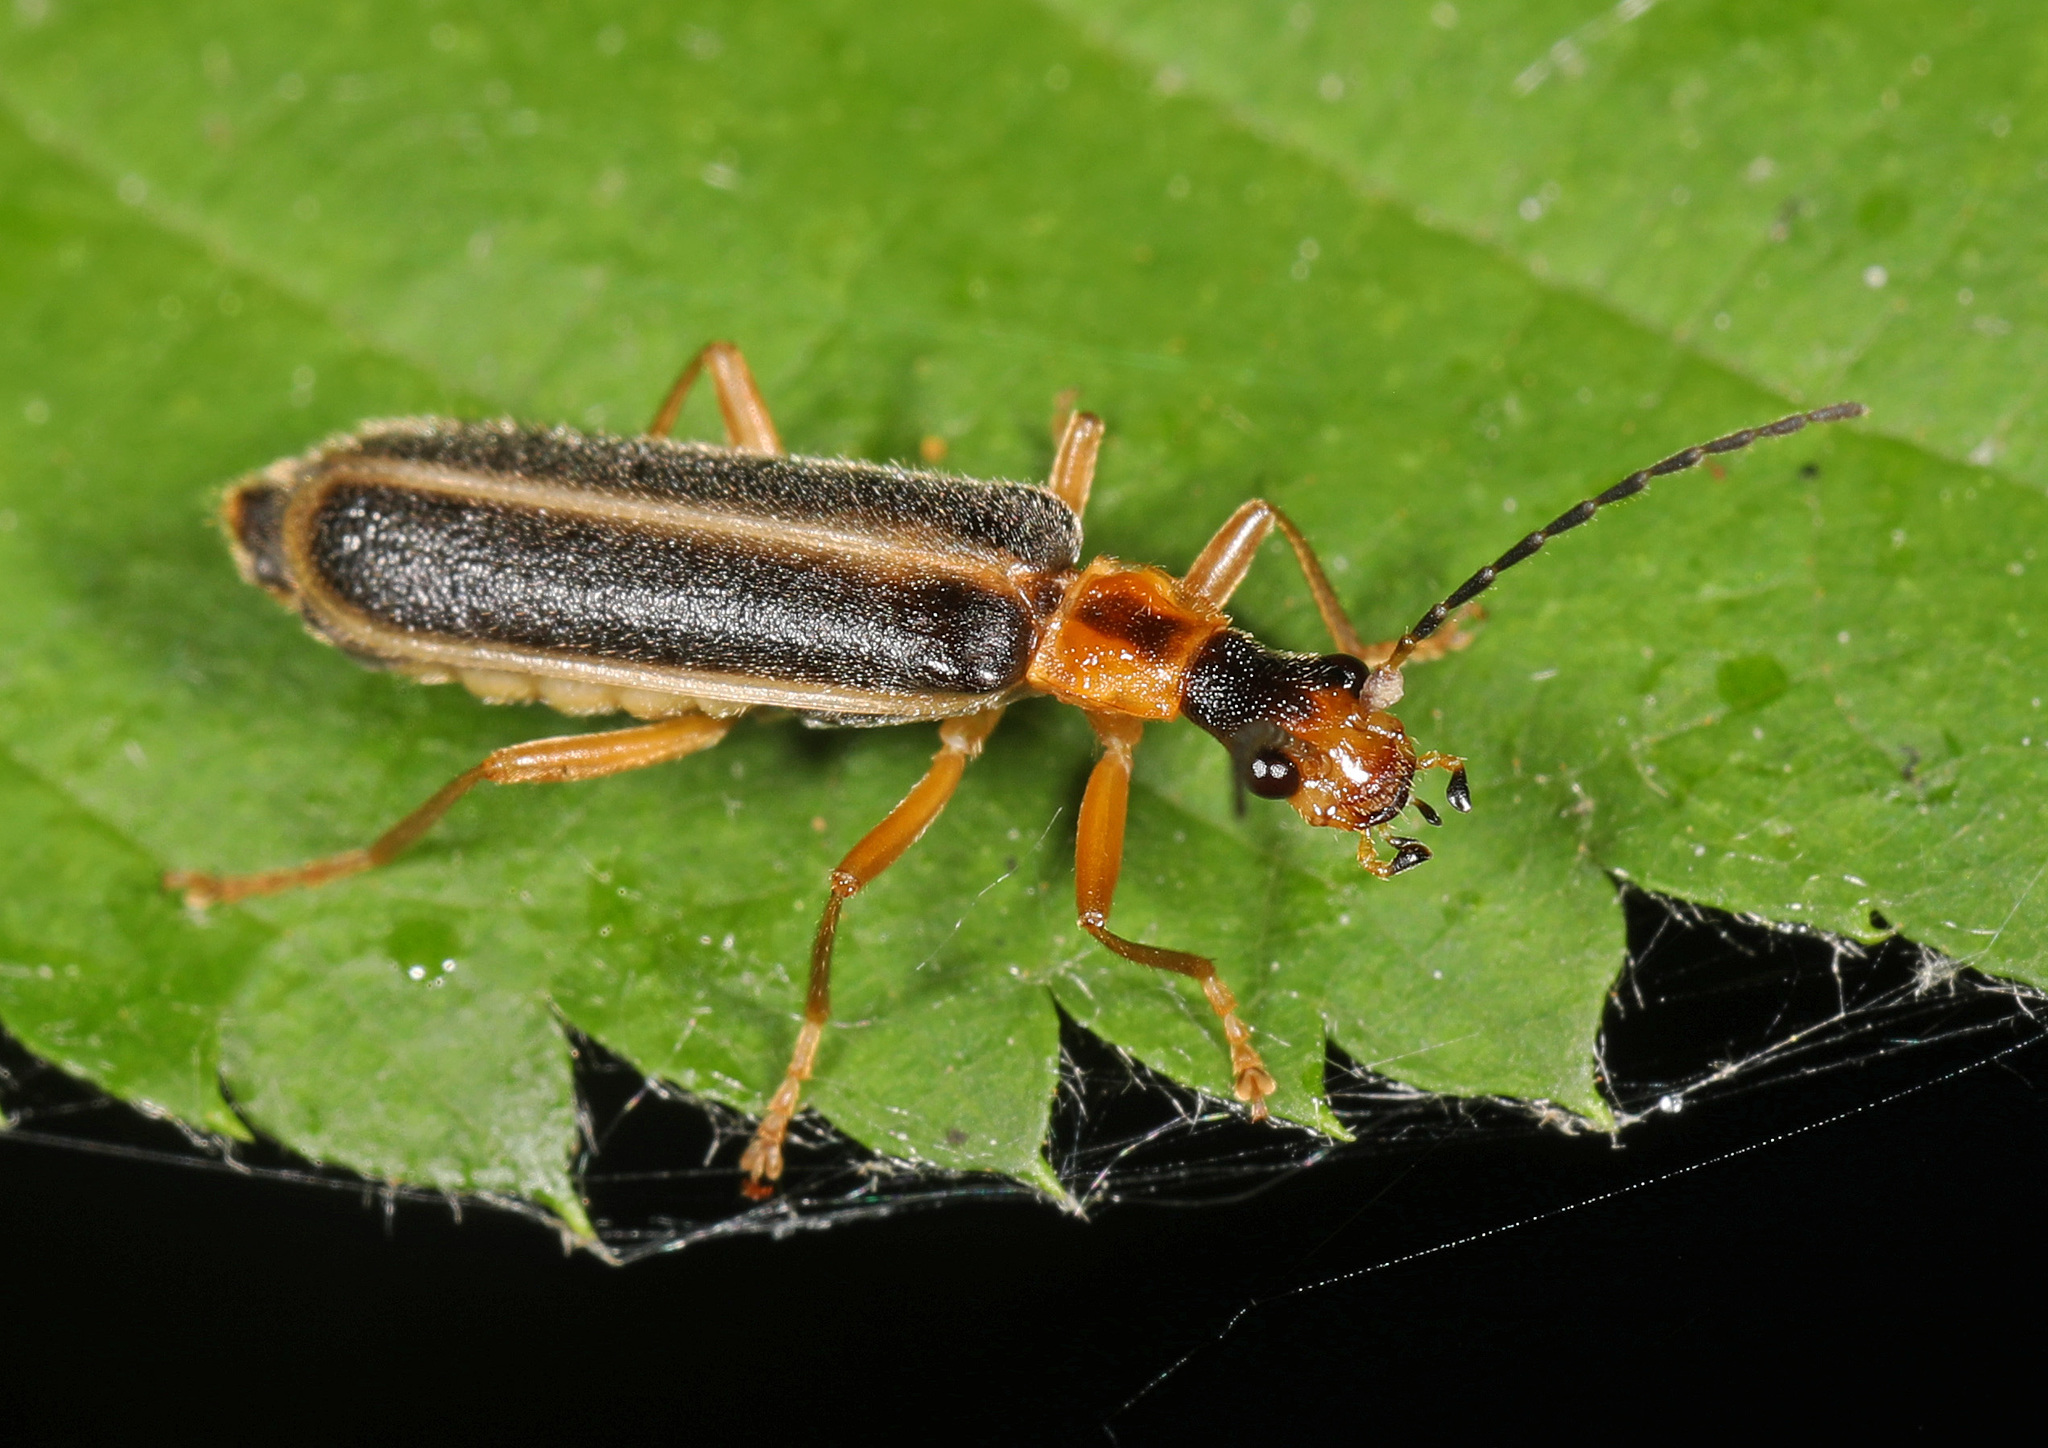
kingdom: Animalia
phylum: Arthropoda
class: Insecta
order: Coleoptera
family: Cantharidae
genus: Podabrus
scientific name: Podabrus brunnicollis
